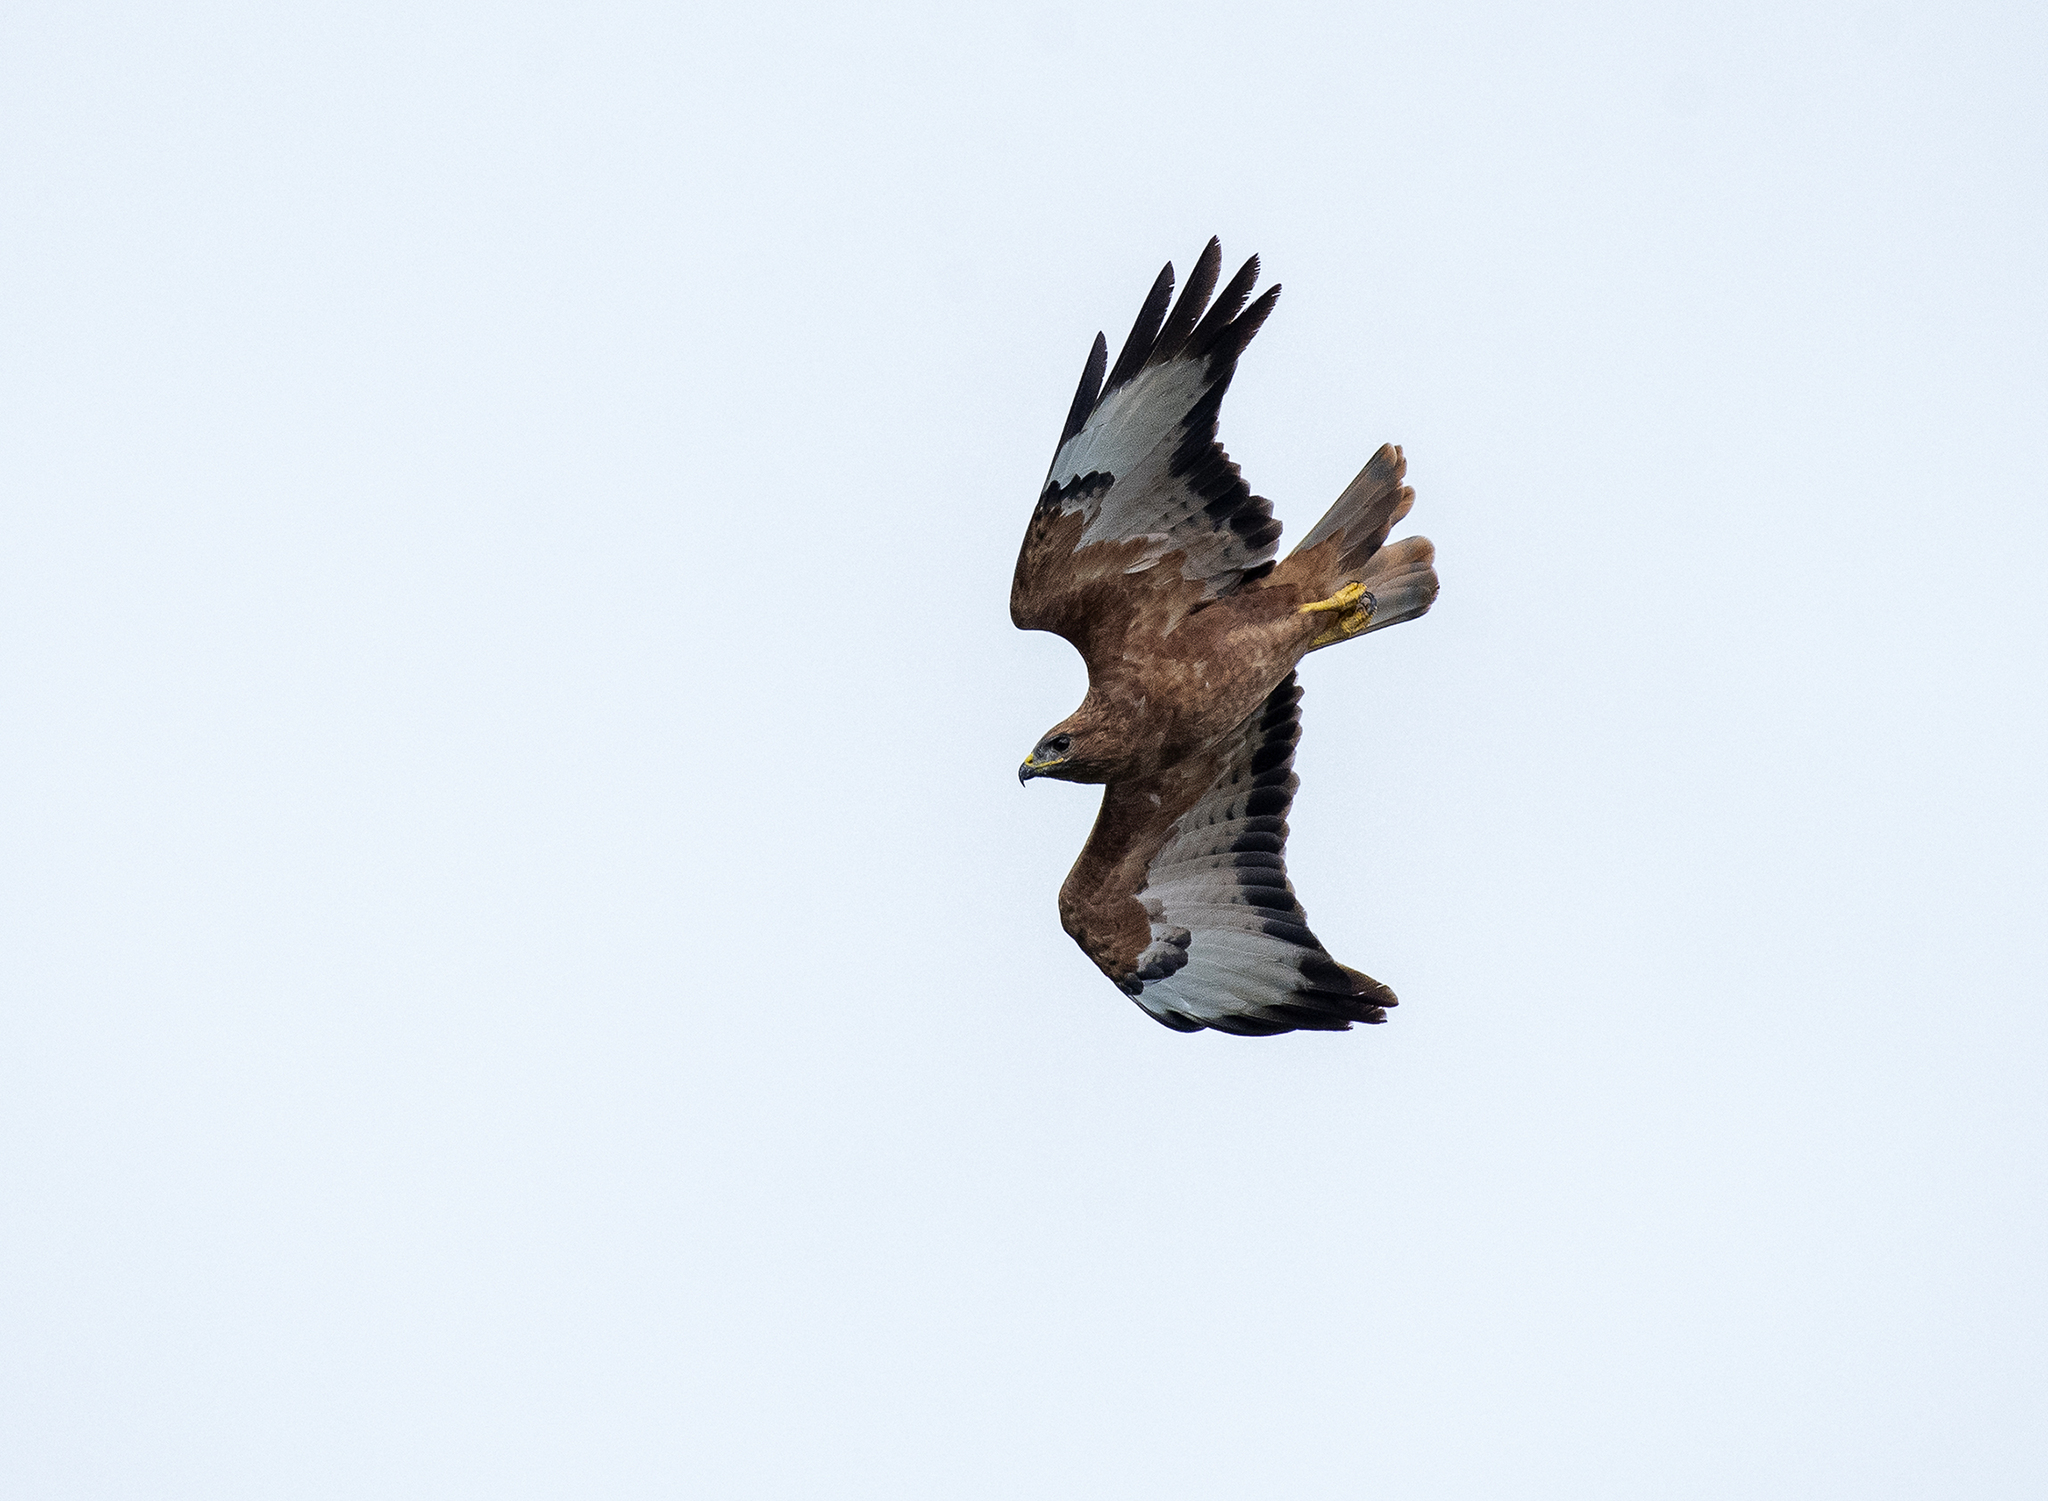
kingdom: Animalia
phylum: Chordata
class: Aves
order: Accipitriformes
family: Accipitridae
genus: Buteo
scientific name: Buteo buteo
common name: Common buzzard
